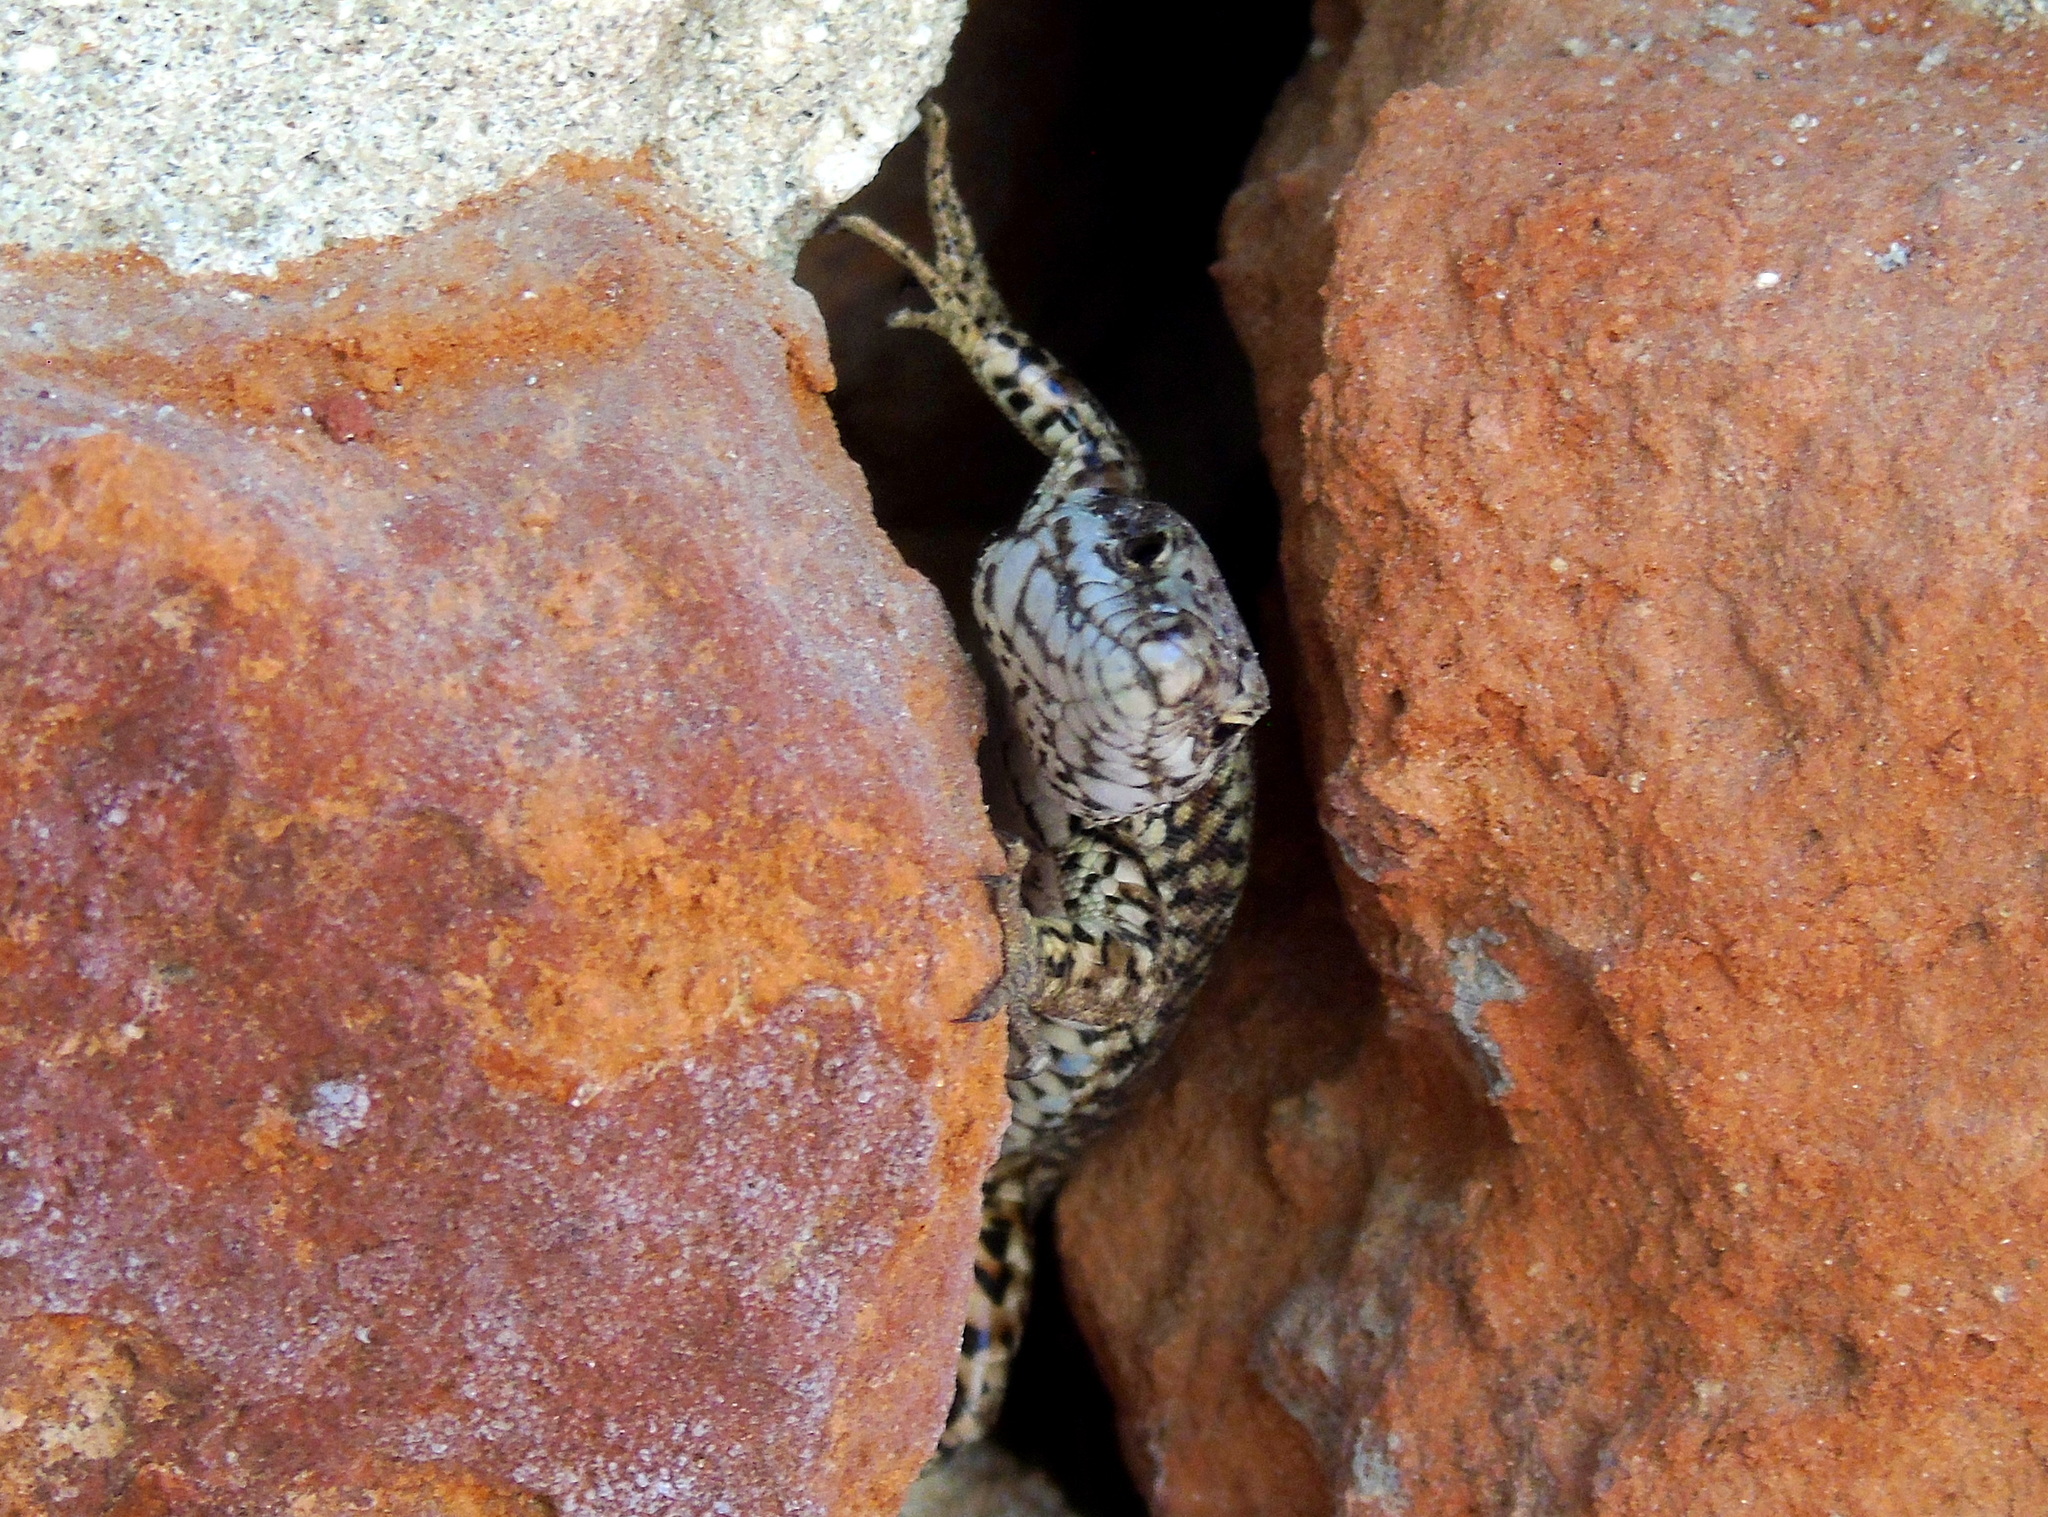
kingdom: Animalia
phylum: Chordata
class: Squamata
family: Lacertidae
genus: Podarcis
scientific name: Podarcis muralis
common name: Common wall lizard
